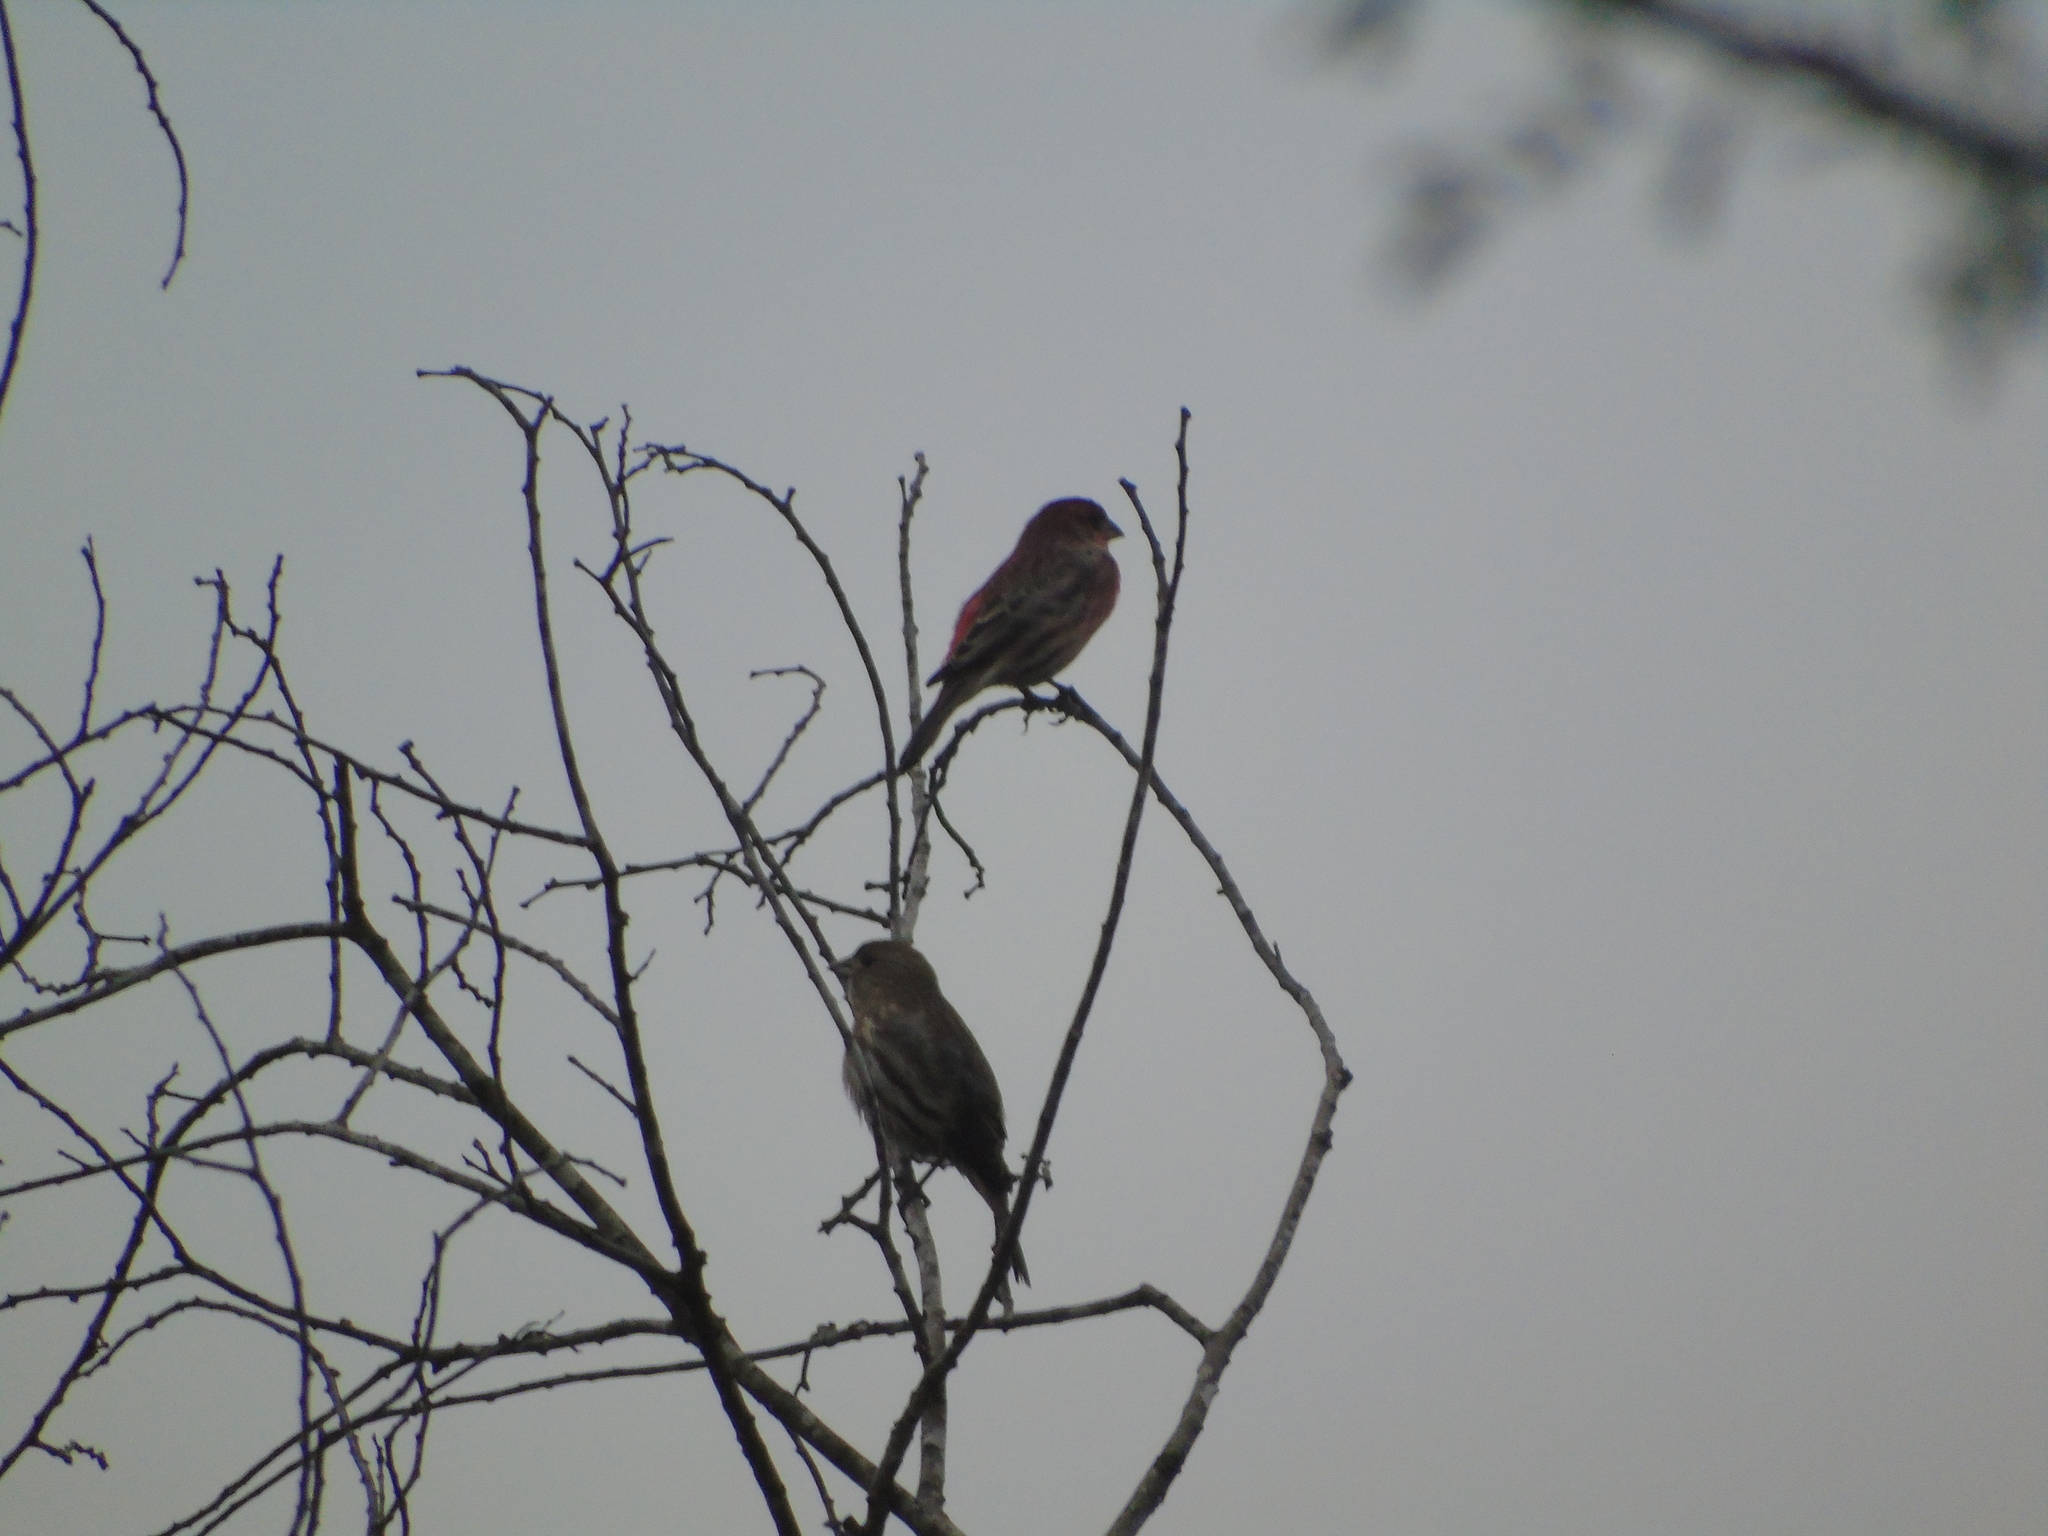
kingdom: Animalia
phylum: Chordata
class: Aves
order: Passeriformes
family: Fringillidae
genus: Haemorhous
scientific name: Haemorhous mexicanus
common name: House finch
